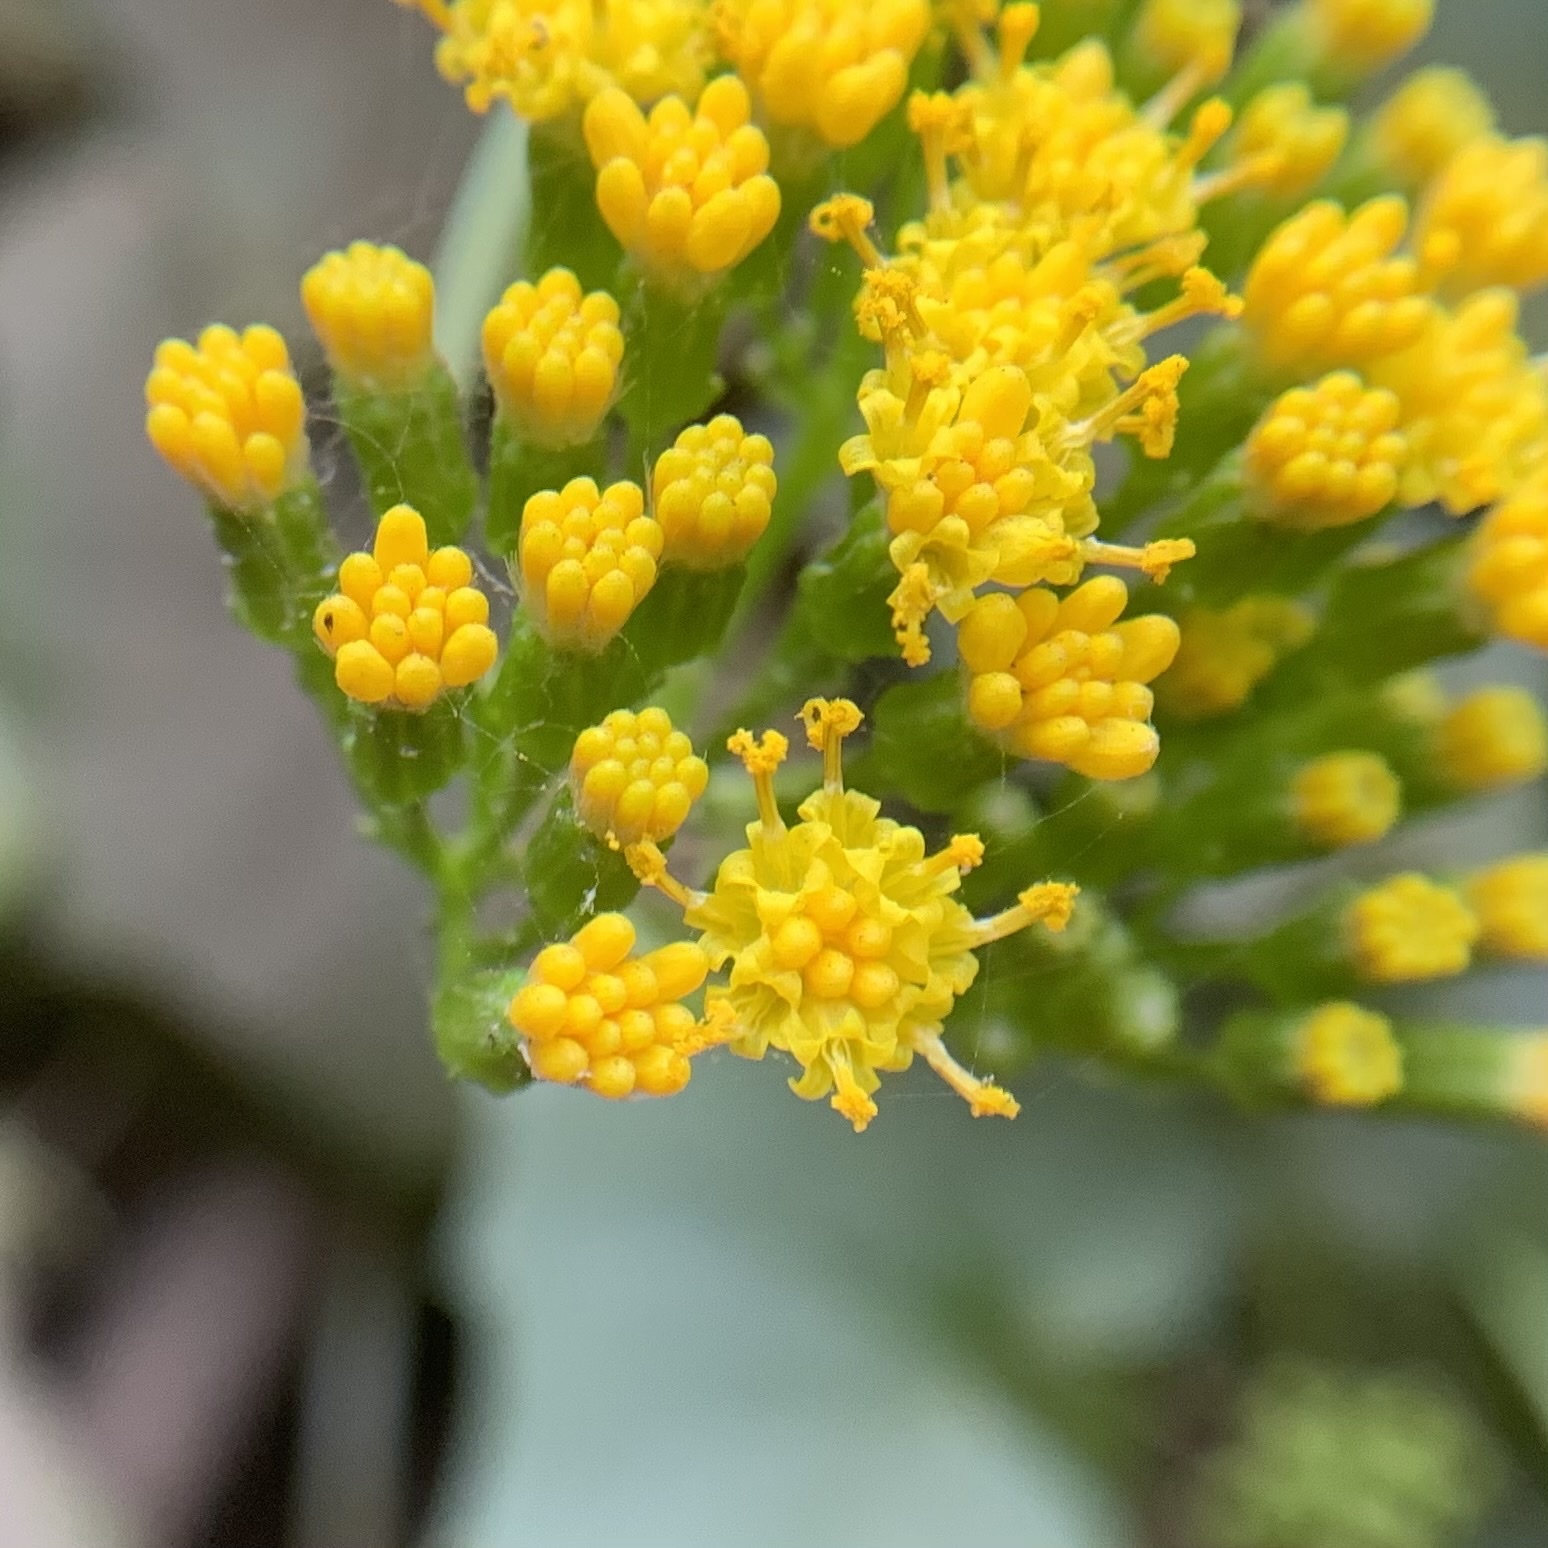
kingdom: Plantae
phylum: Tracheophyta
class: Magnoliopsida
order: Asterales
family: Asteraceae
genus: Delairea
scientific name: Delairea odorata
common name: Cape-ivy
